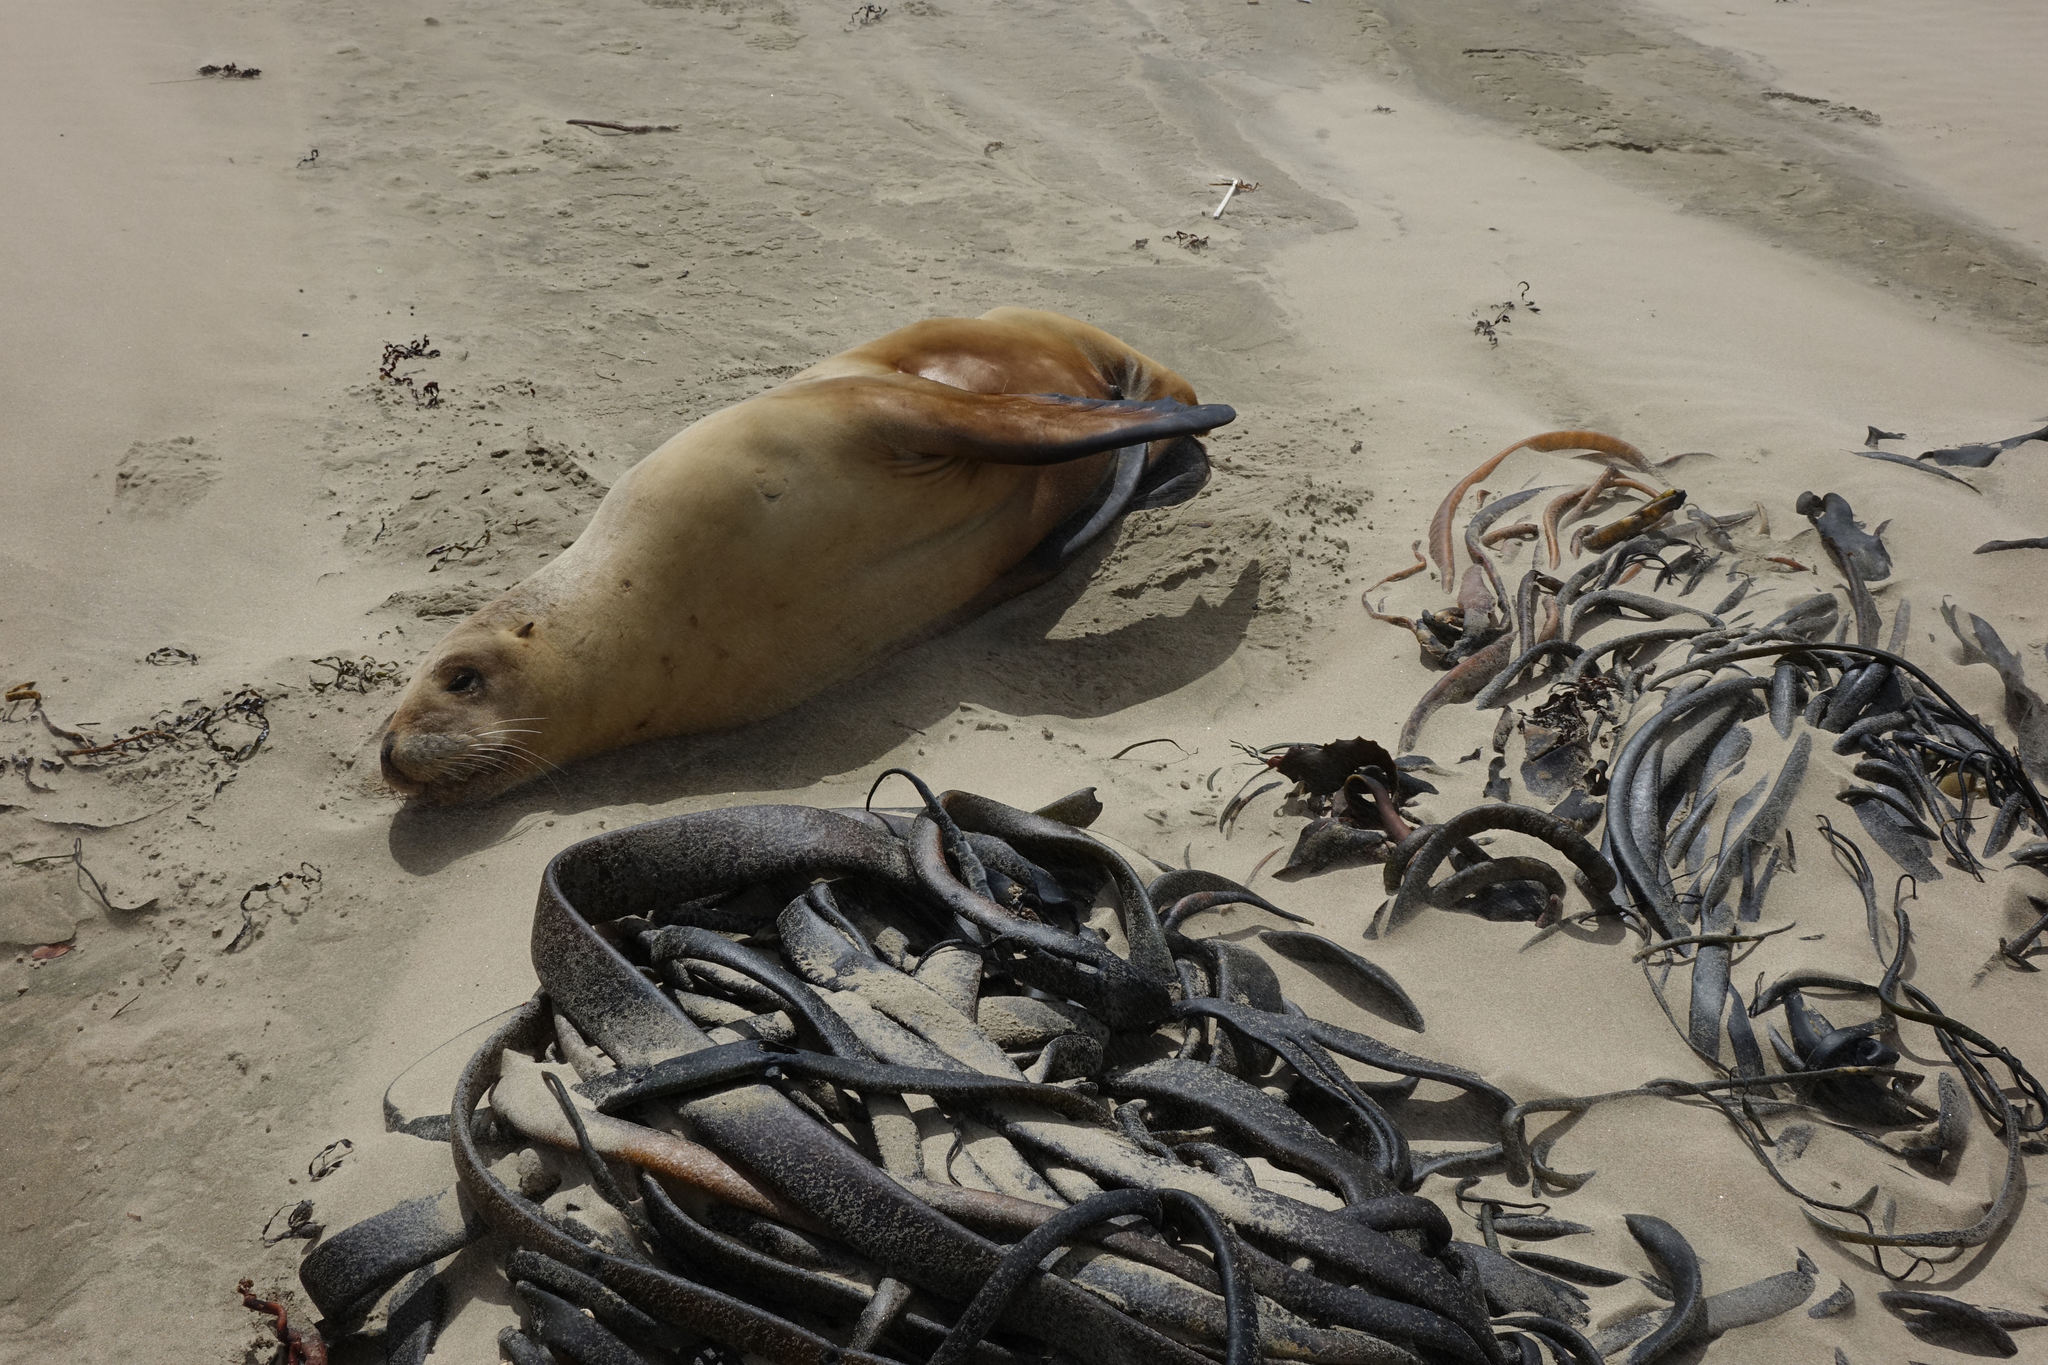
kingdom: Animalia
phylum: Chordata
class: Mammalia
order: Carnivora
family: Otariidae
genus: Phocarctos
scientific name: Phocarctos hookeri
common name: New zealand sea lion
